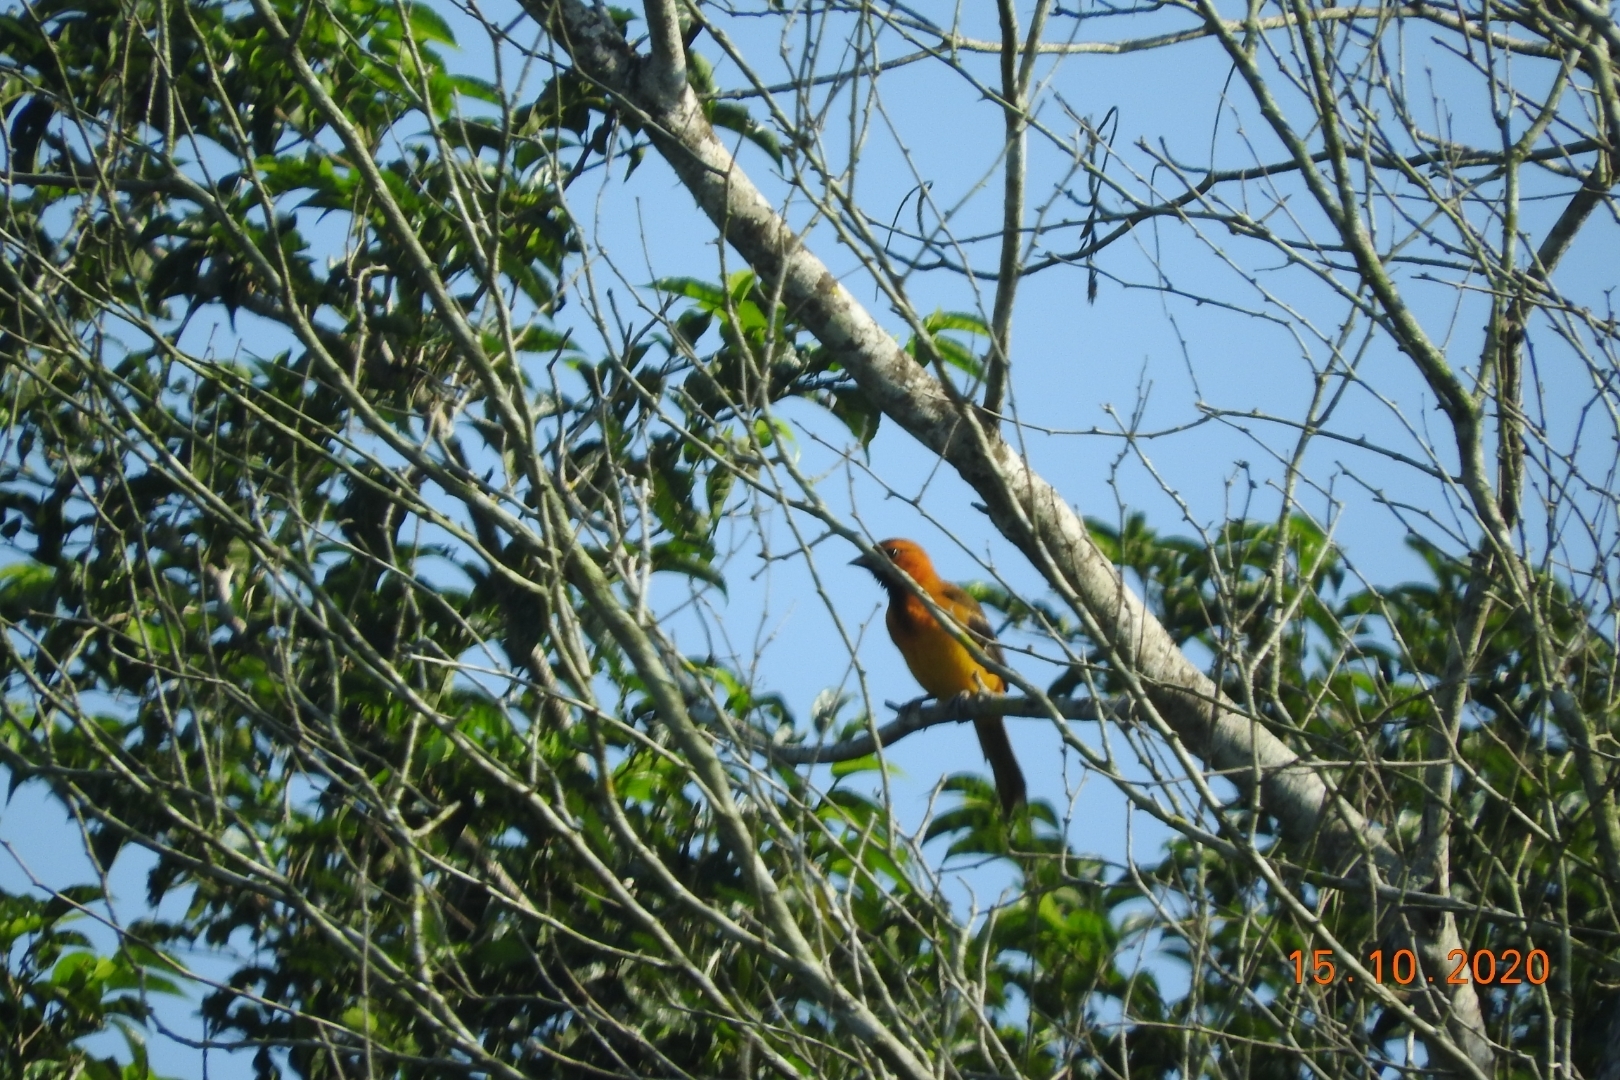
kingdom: Animalia
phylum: Chordata
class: Aves
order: Passeriformes
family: Icteridae
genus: Icterus
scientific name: Icterus gularis
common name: Altamira oriole
